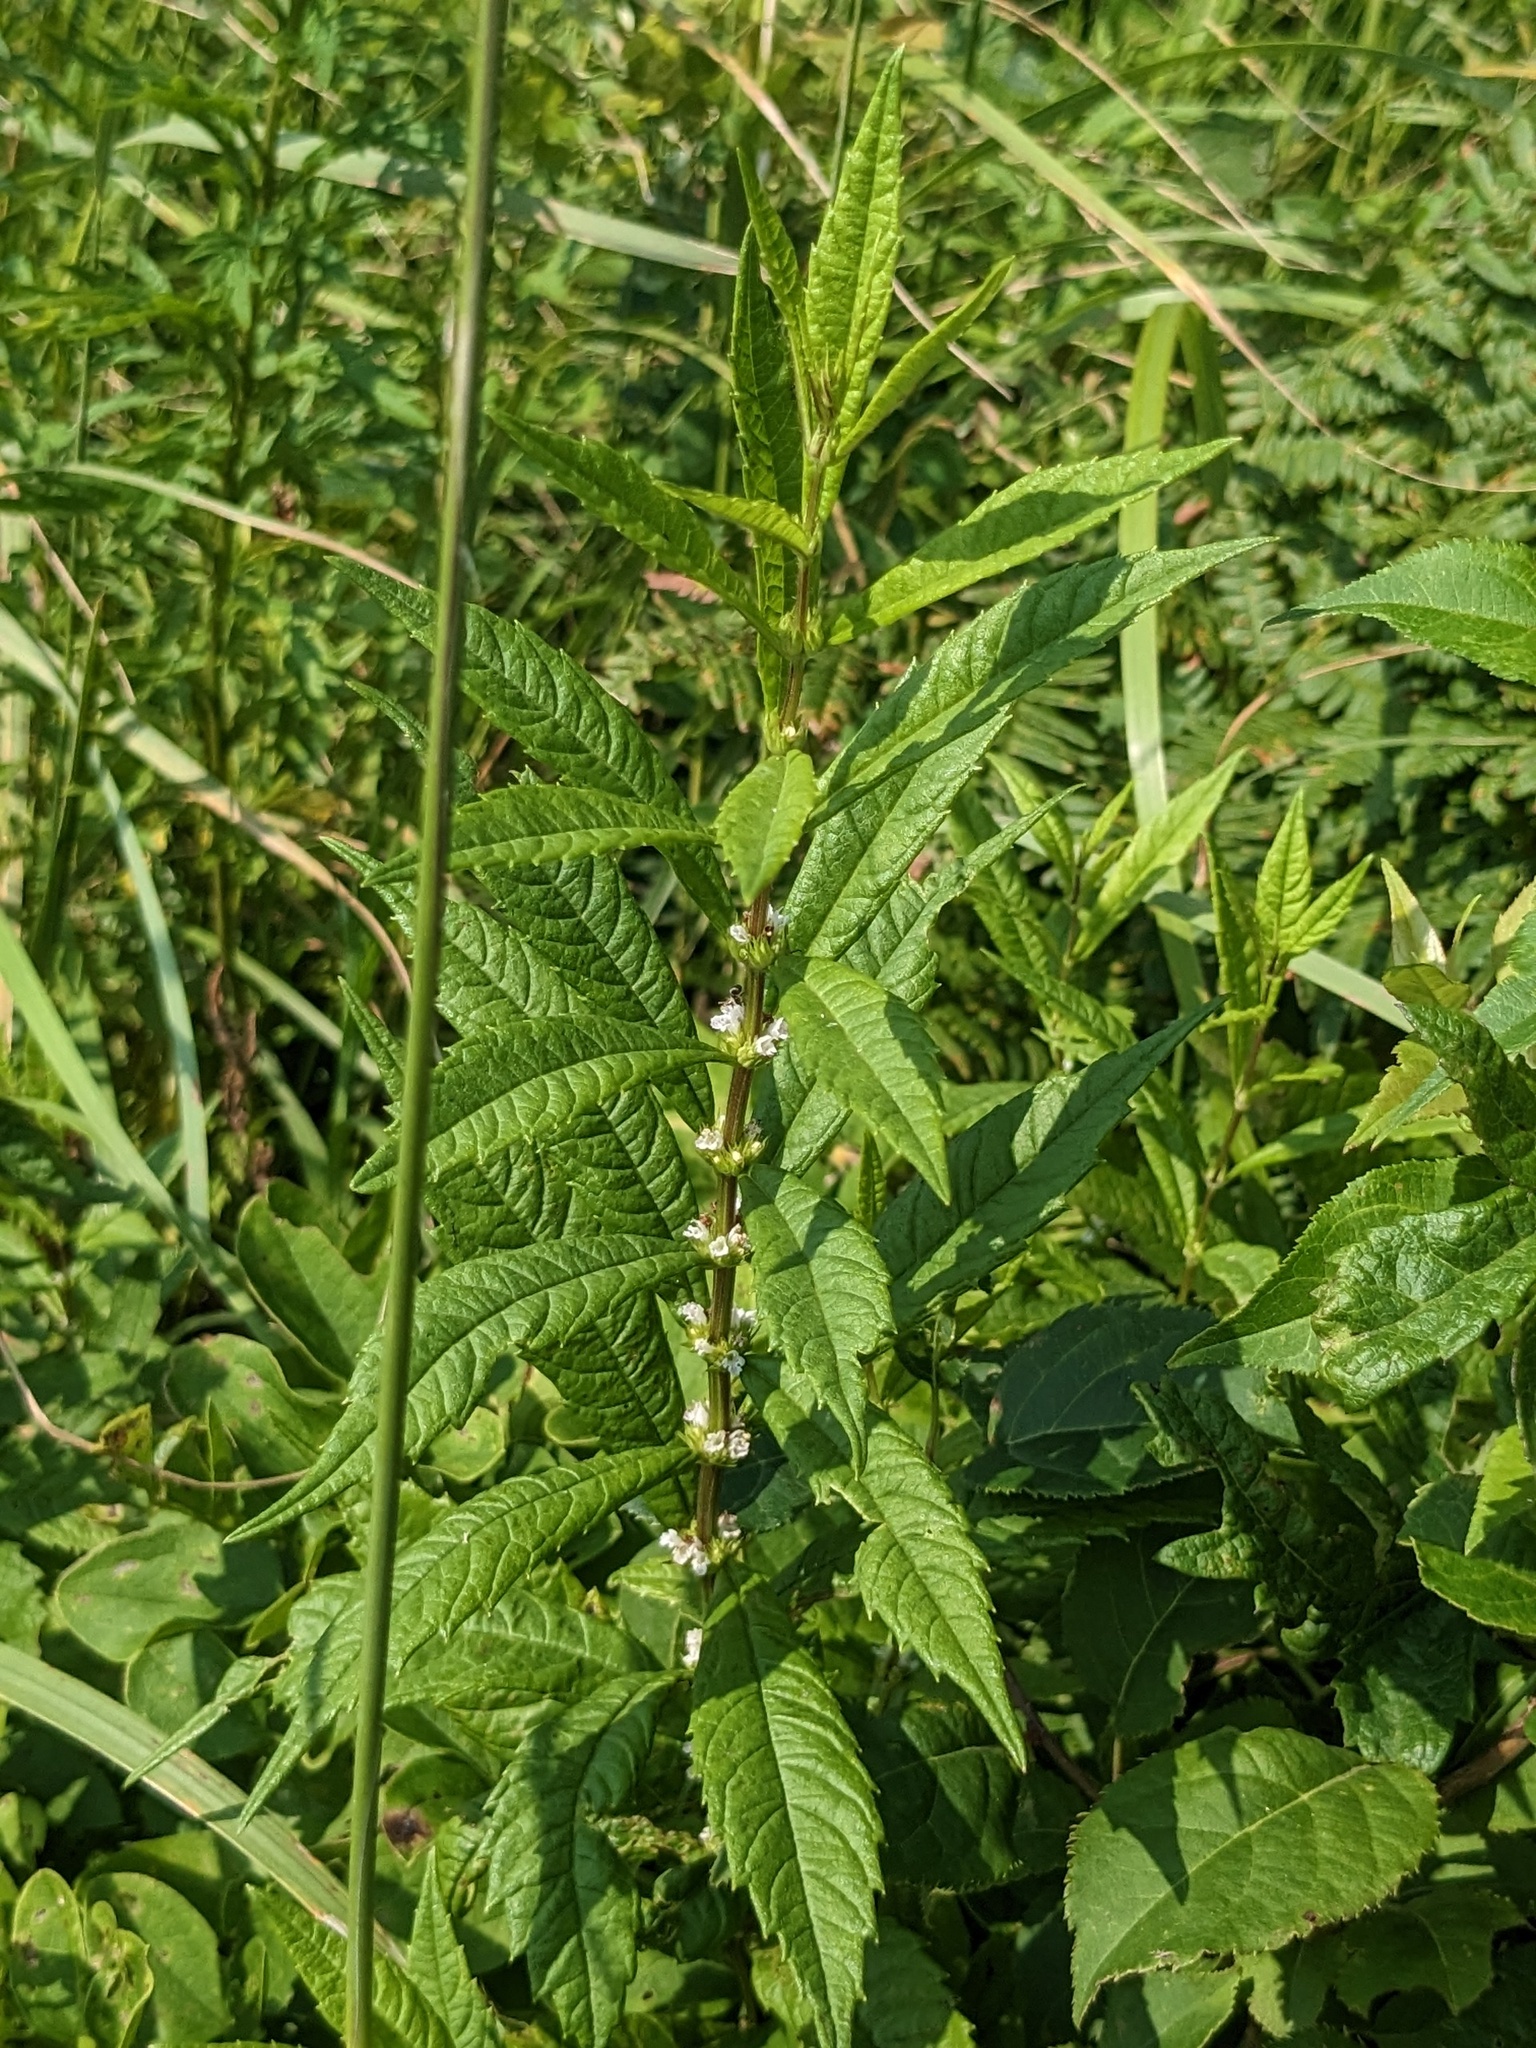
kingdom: Plantae
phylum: Tracheophyta
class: Magnoliopsida
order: Lamiales
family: Lamiaceae
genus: Lycopus
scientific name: Lycopus lucidus
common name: Shiny bugleweed
